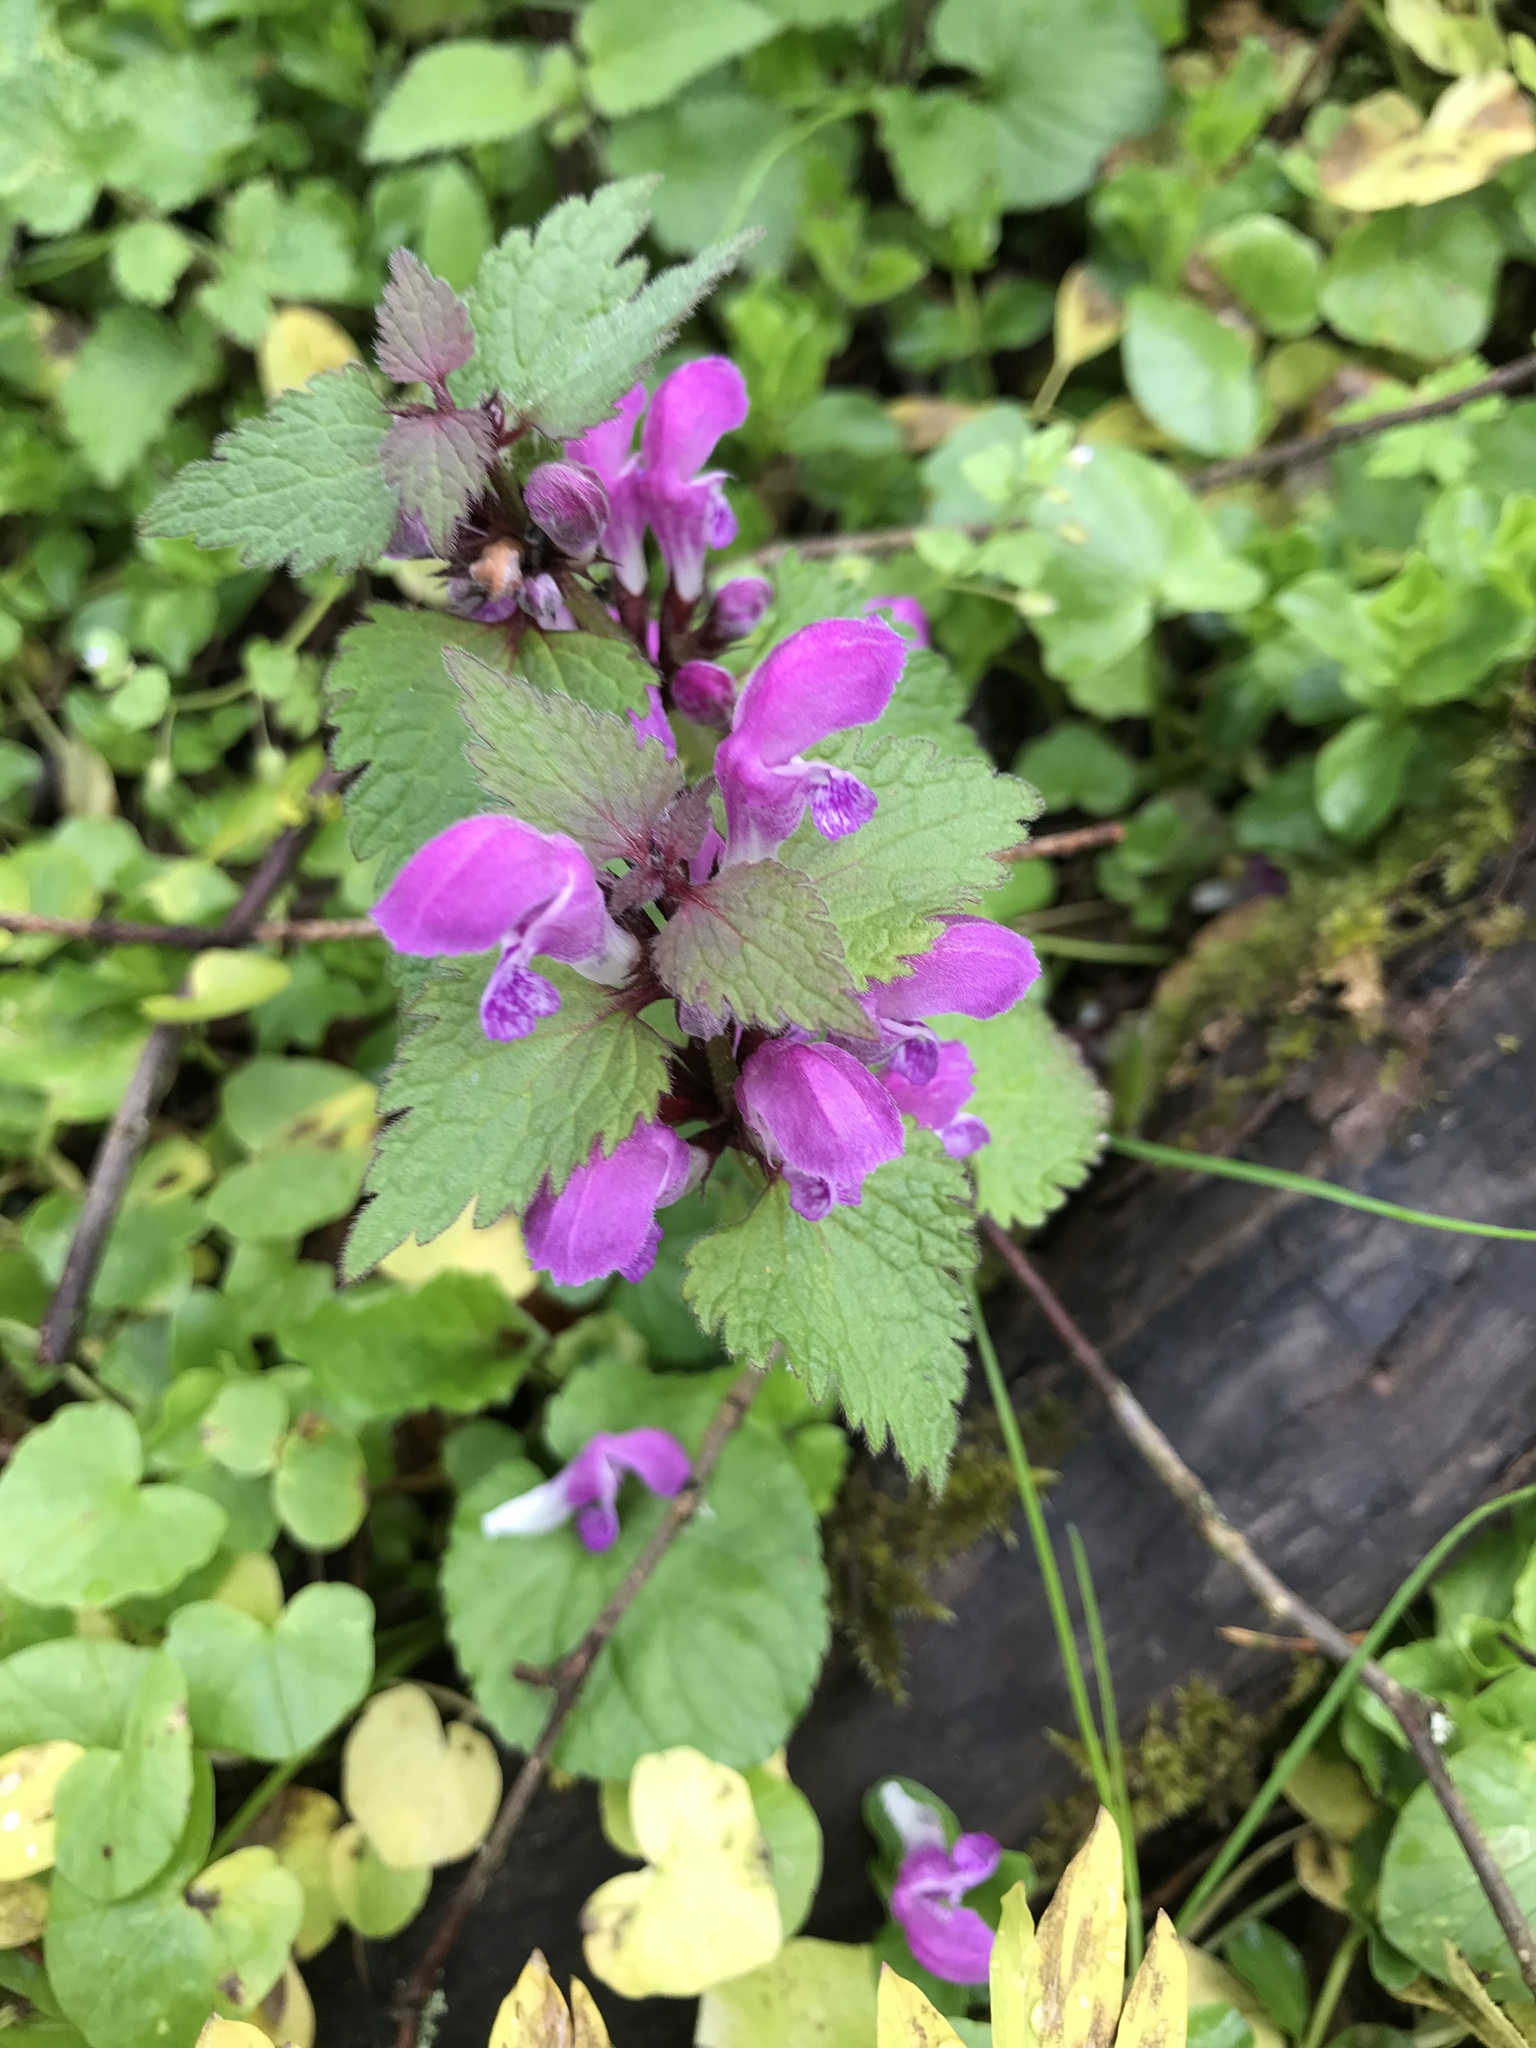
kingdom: Plantae
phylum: Tracheophyta
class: Magnoliopsida
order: Lamiales
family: Lamiaceae
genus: Lamium
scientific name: Lamium maculatum
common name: Spotted dead-nettle
